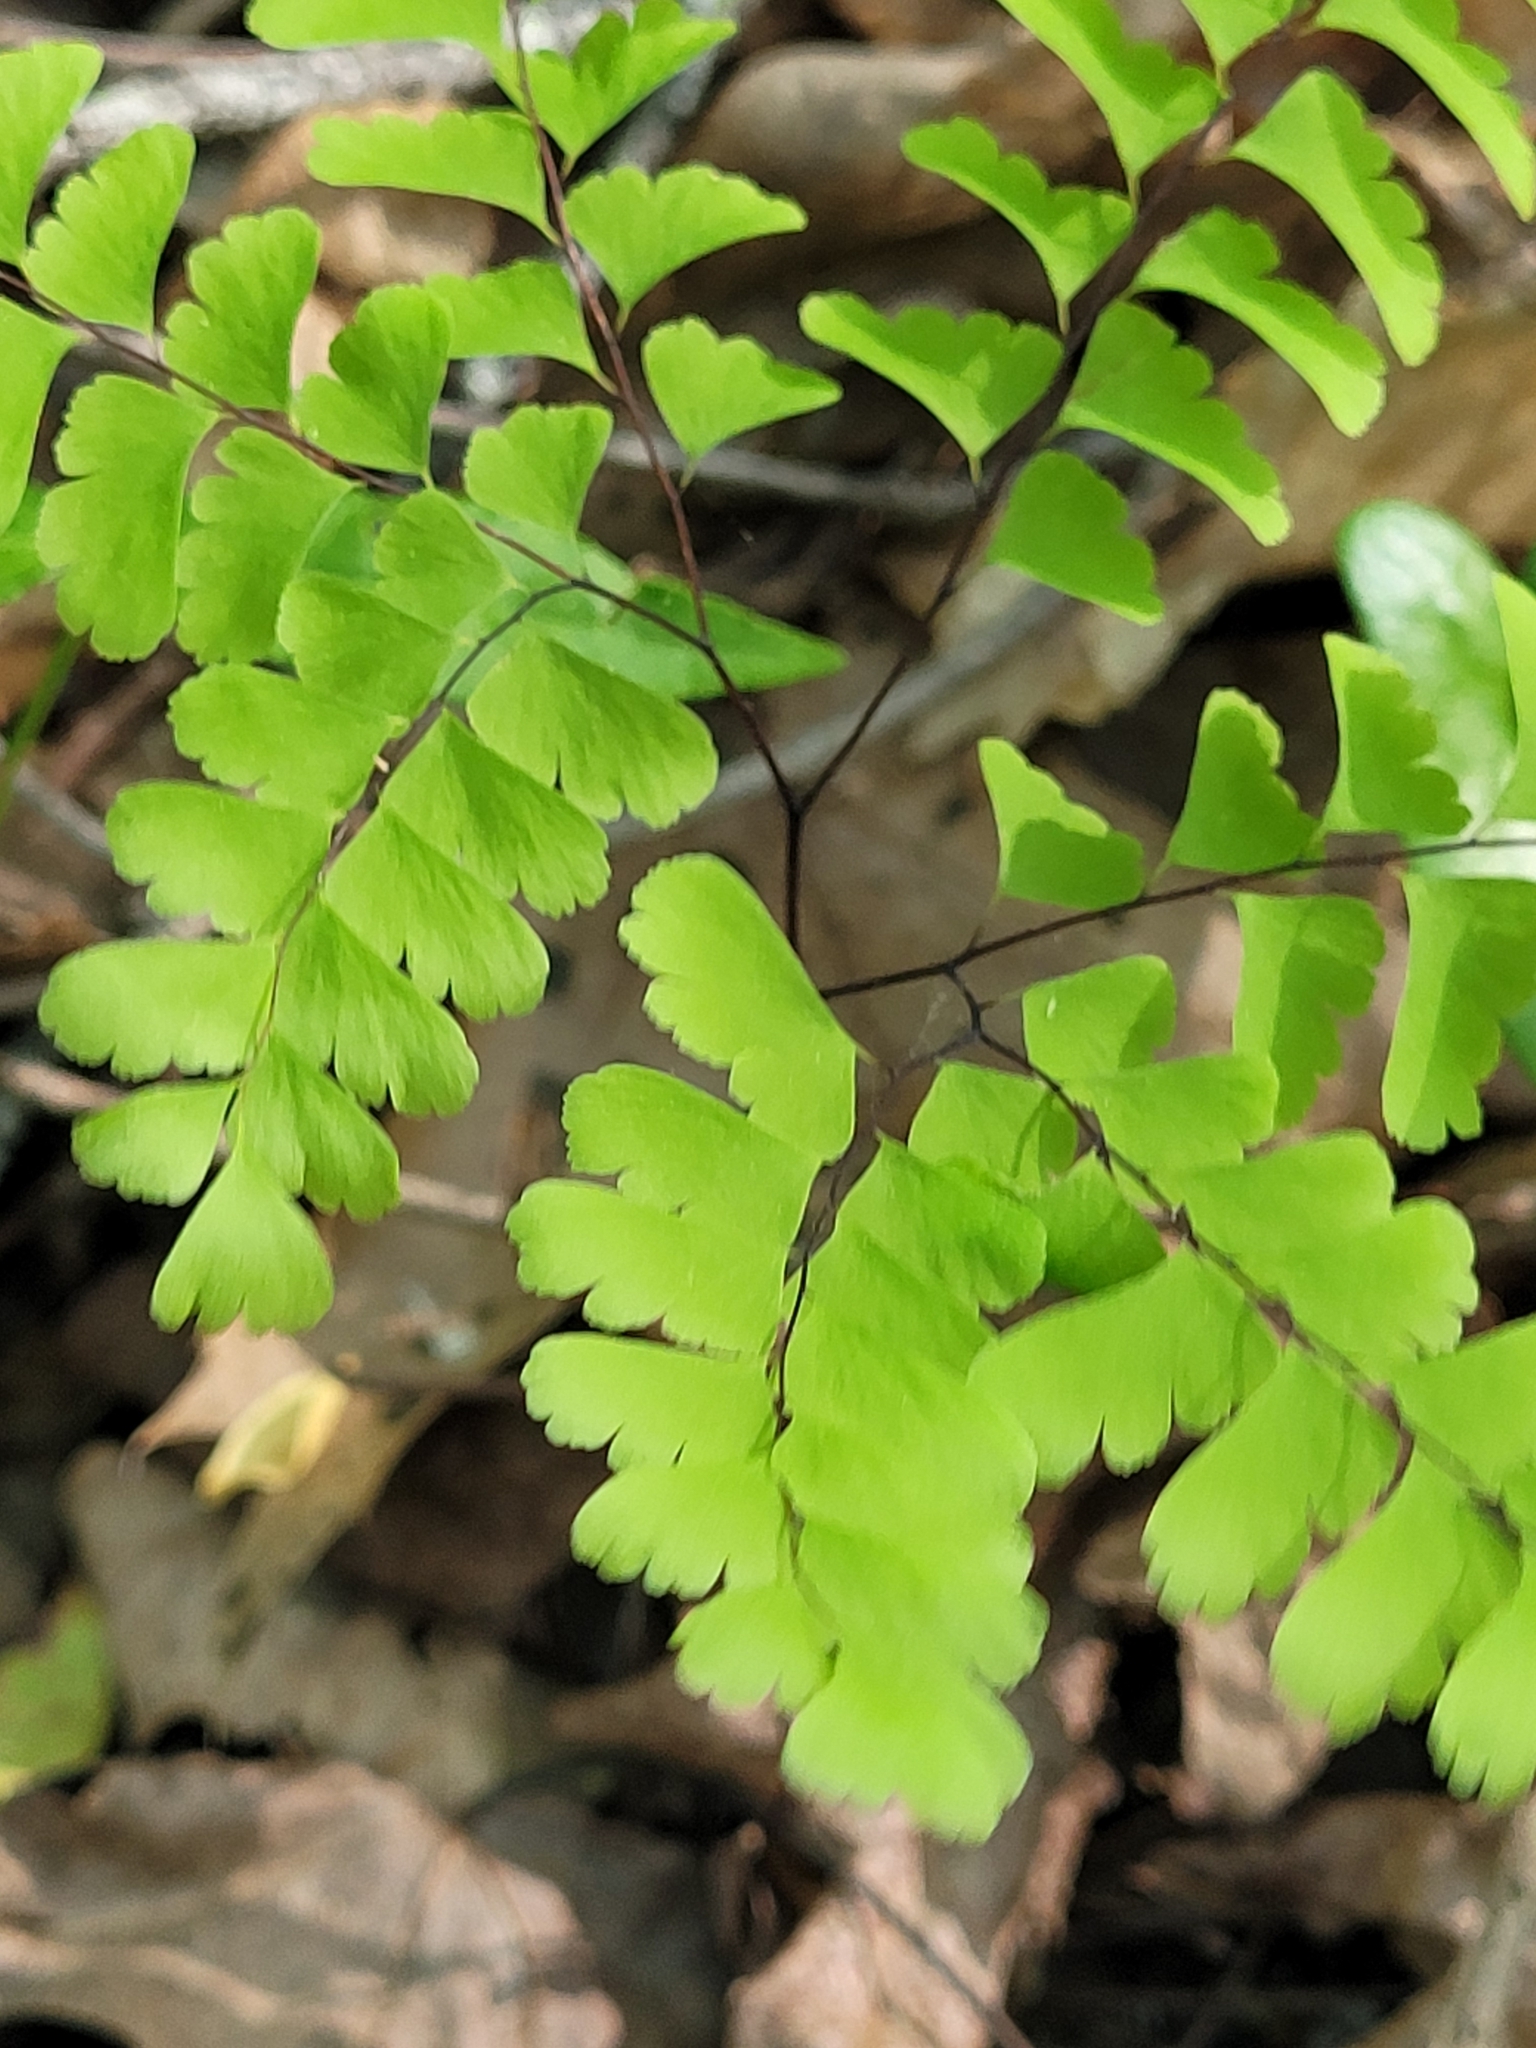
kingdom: Plantae
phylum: Tracheophyta
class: Polypodiopsida
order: Polypodiales
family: Pteridaceae
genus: Adiantum
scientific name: Adiantum pedatum
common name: Five-finger fern
